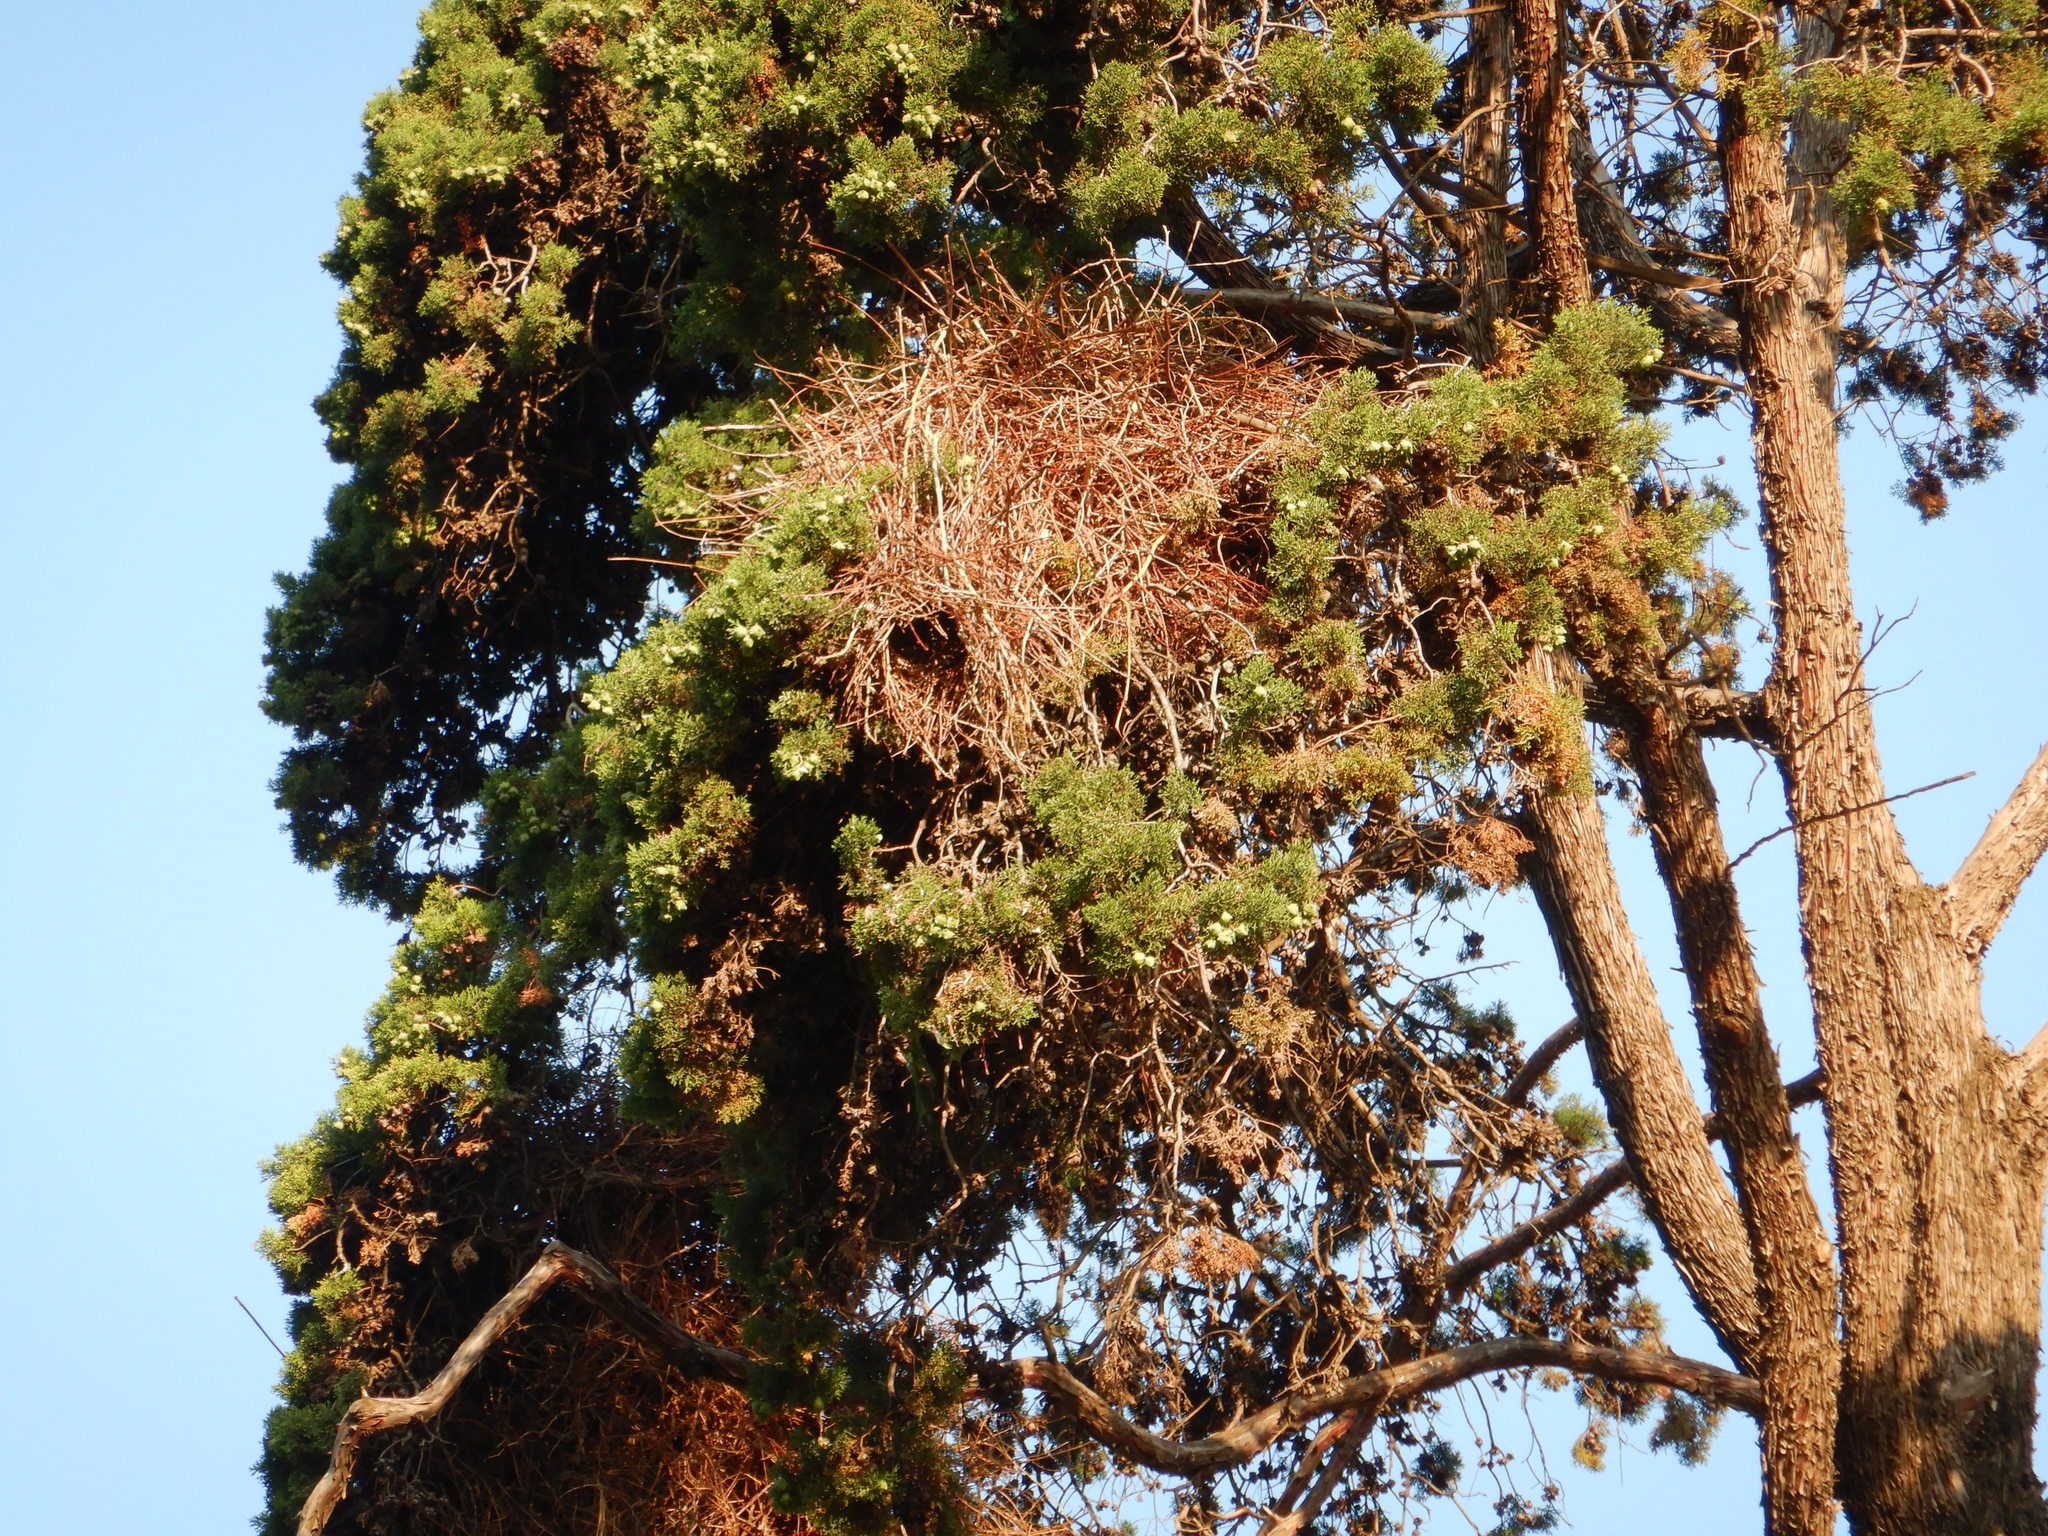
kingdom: Animalia
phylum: Chordata
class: Aves
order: Psittaciformes
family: Psittacidae
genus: Myiopsitta
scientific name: Myiopsitta monachus
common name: Monk parakeet
